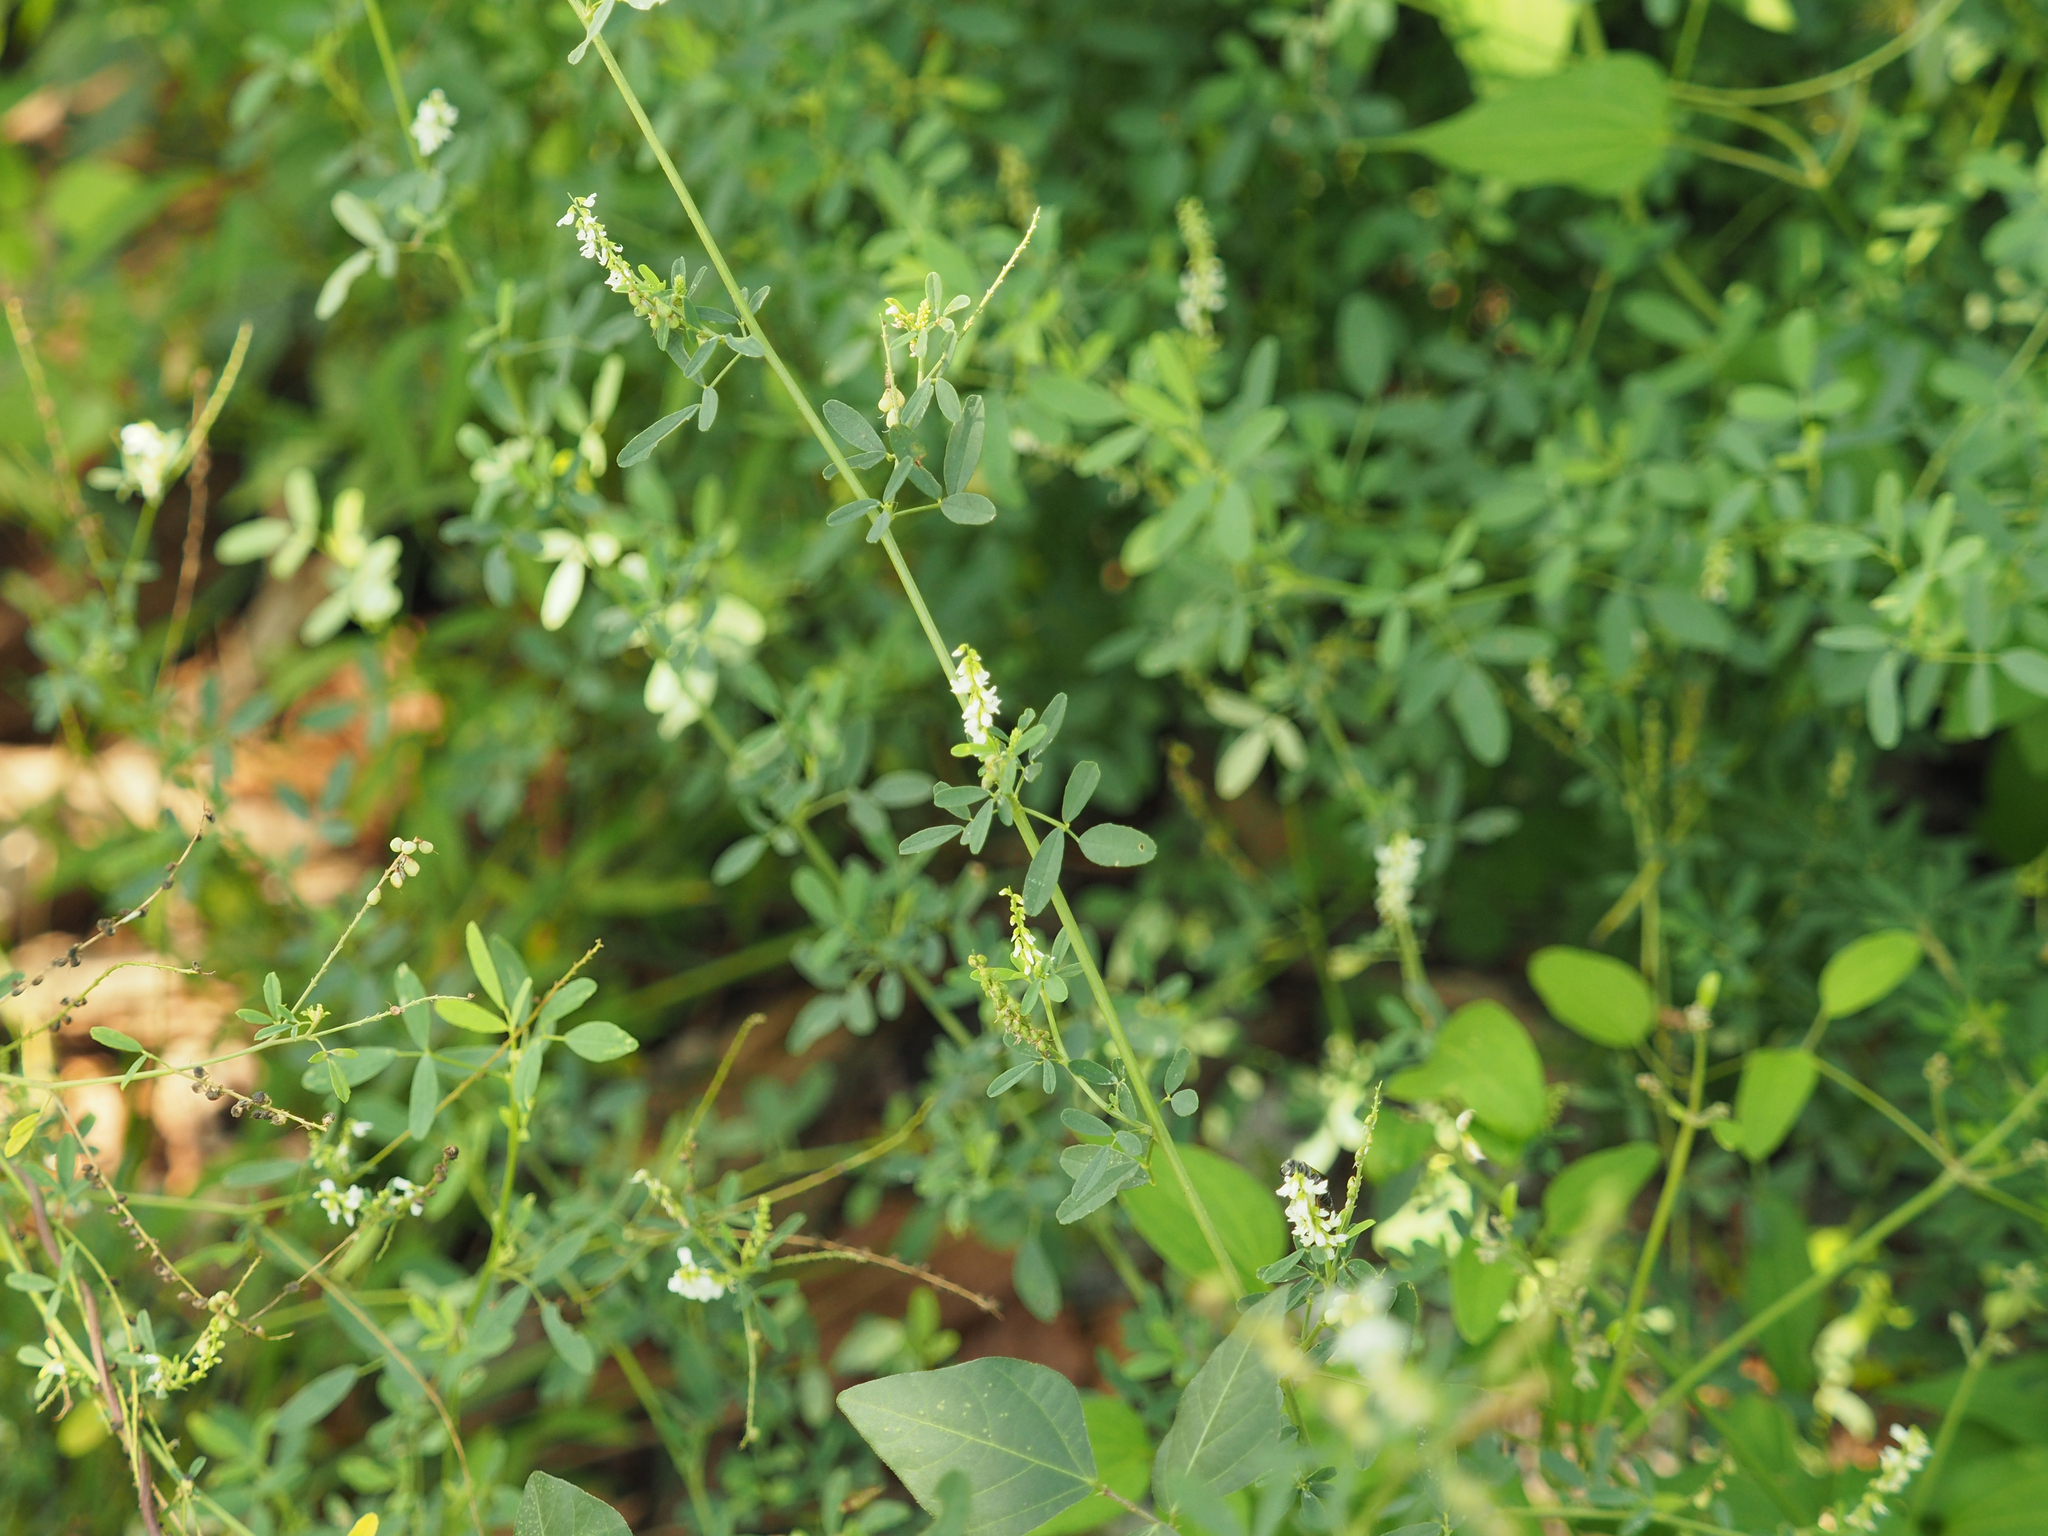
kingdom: Plantae
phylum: Tracheophyta
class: Magnoliopsida
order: Fabales
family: Fabaceae
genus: Melilotus
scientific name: Melilotus albus
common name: White melilot
